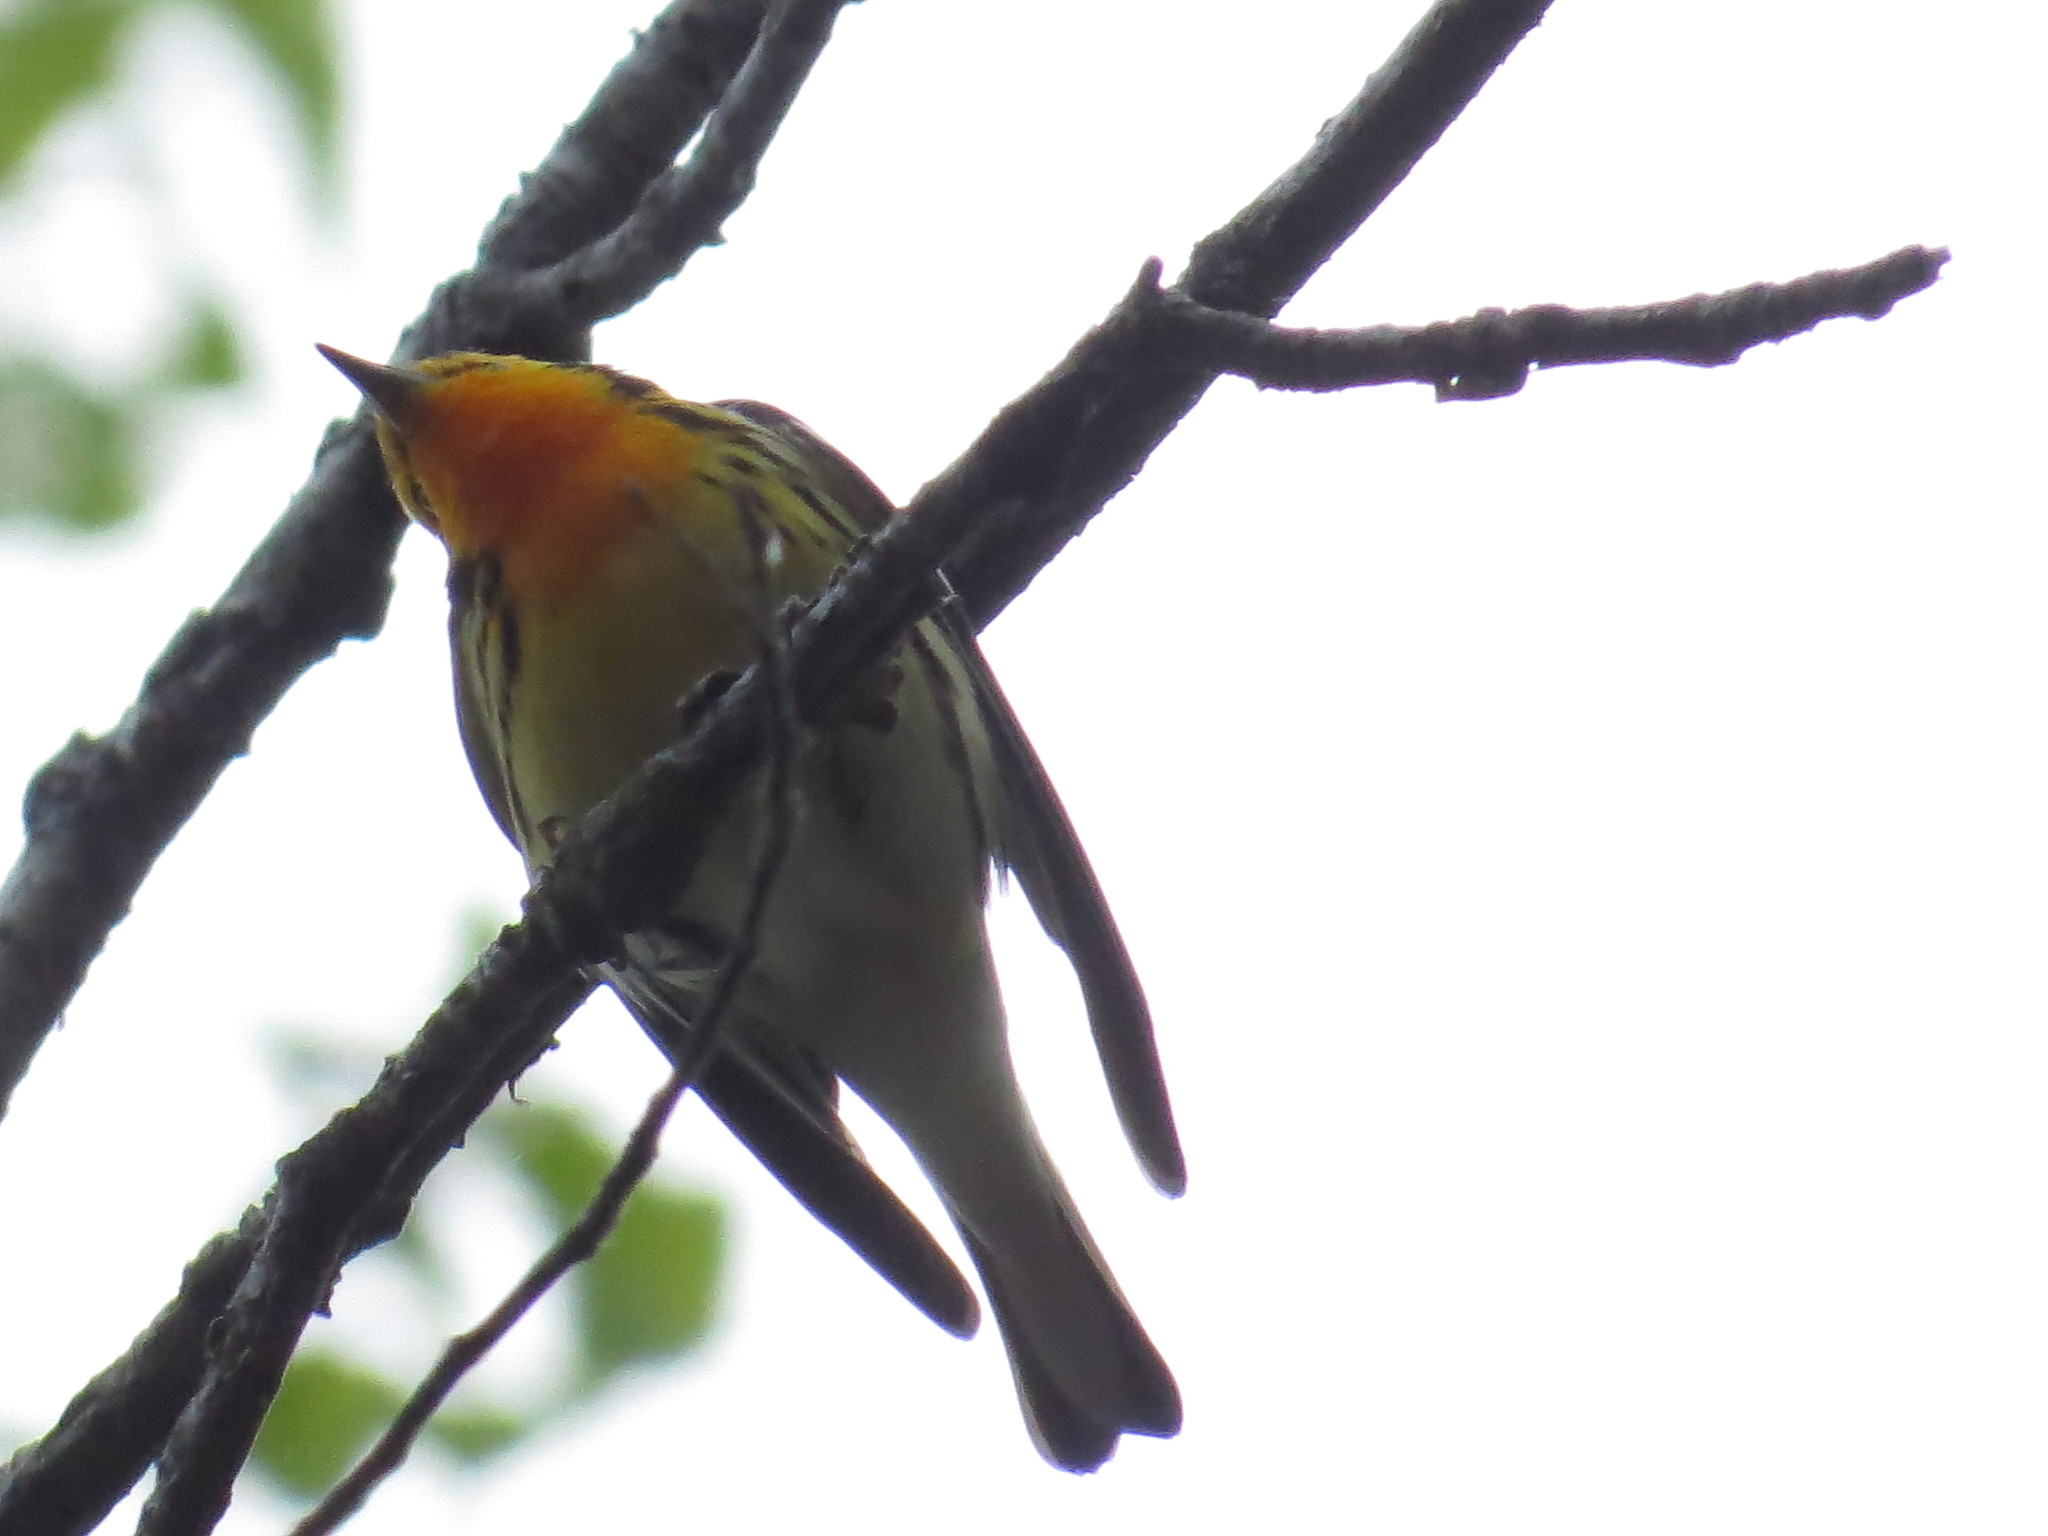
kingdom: Animalia
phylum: Chordata
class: Aves
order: Passeriformes
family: Parulidae
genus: Setophaga
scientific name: Setophaga fusca
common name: Blackburnian warbler
